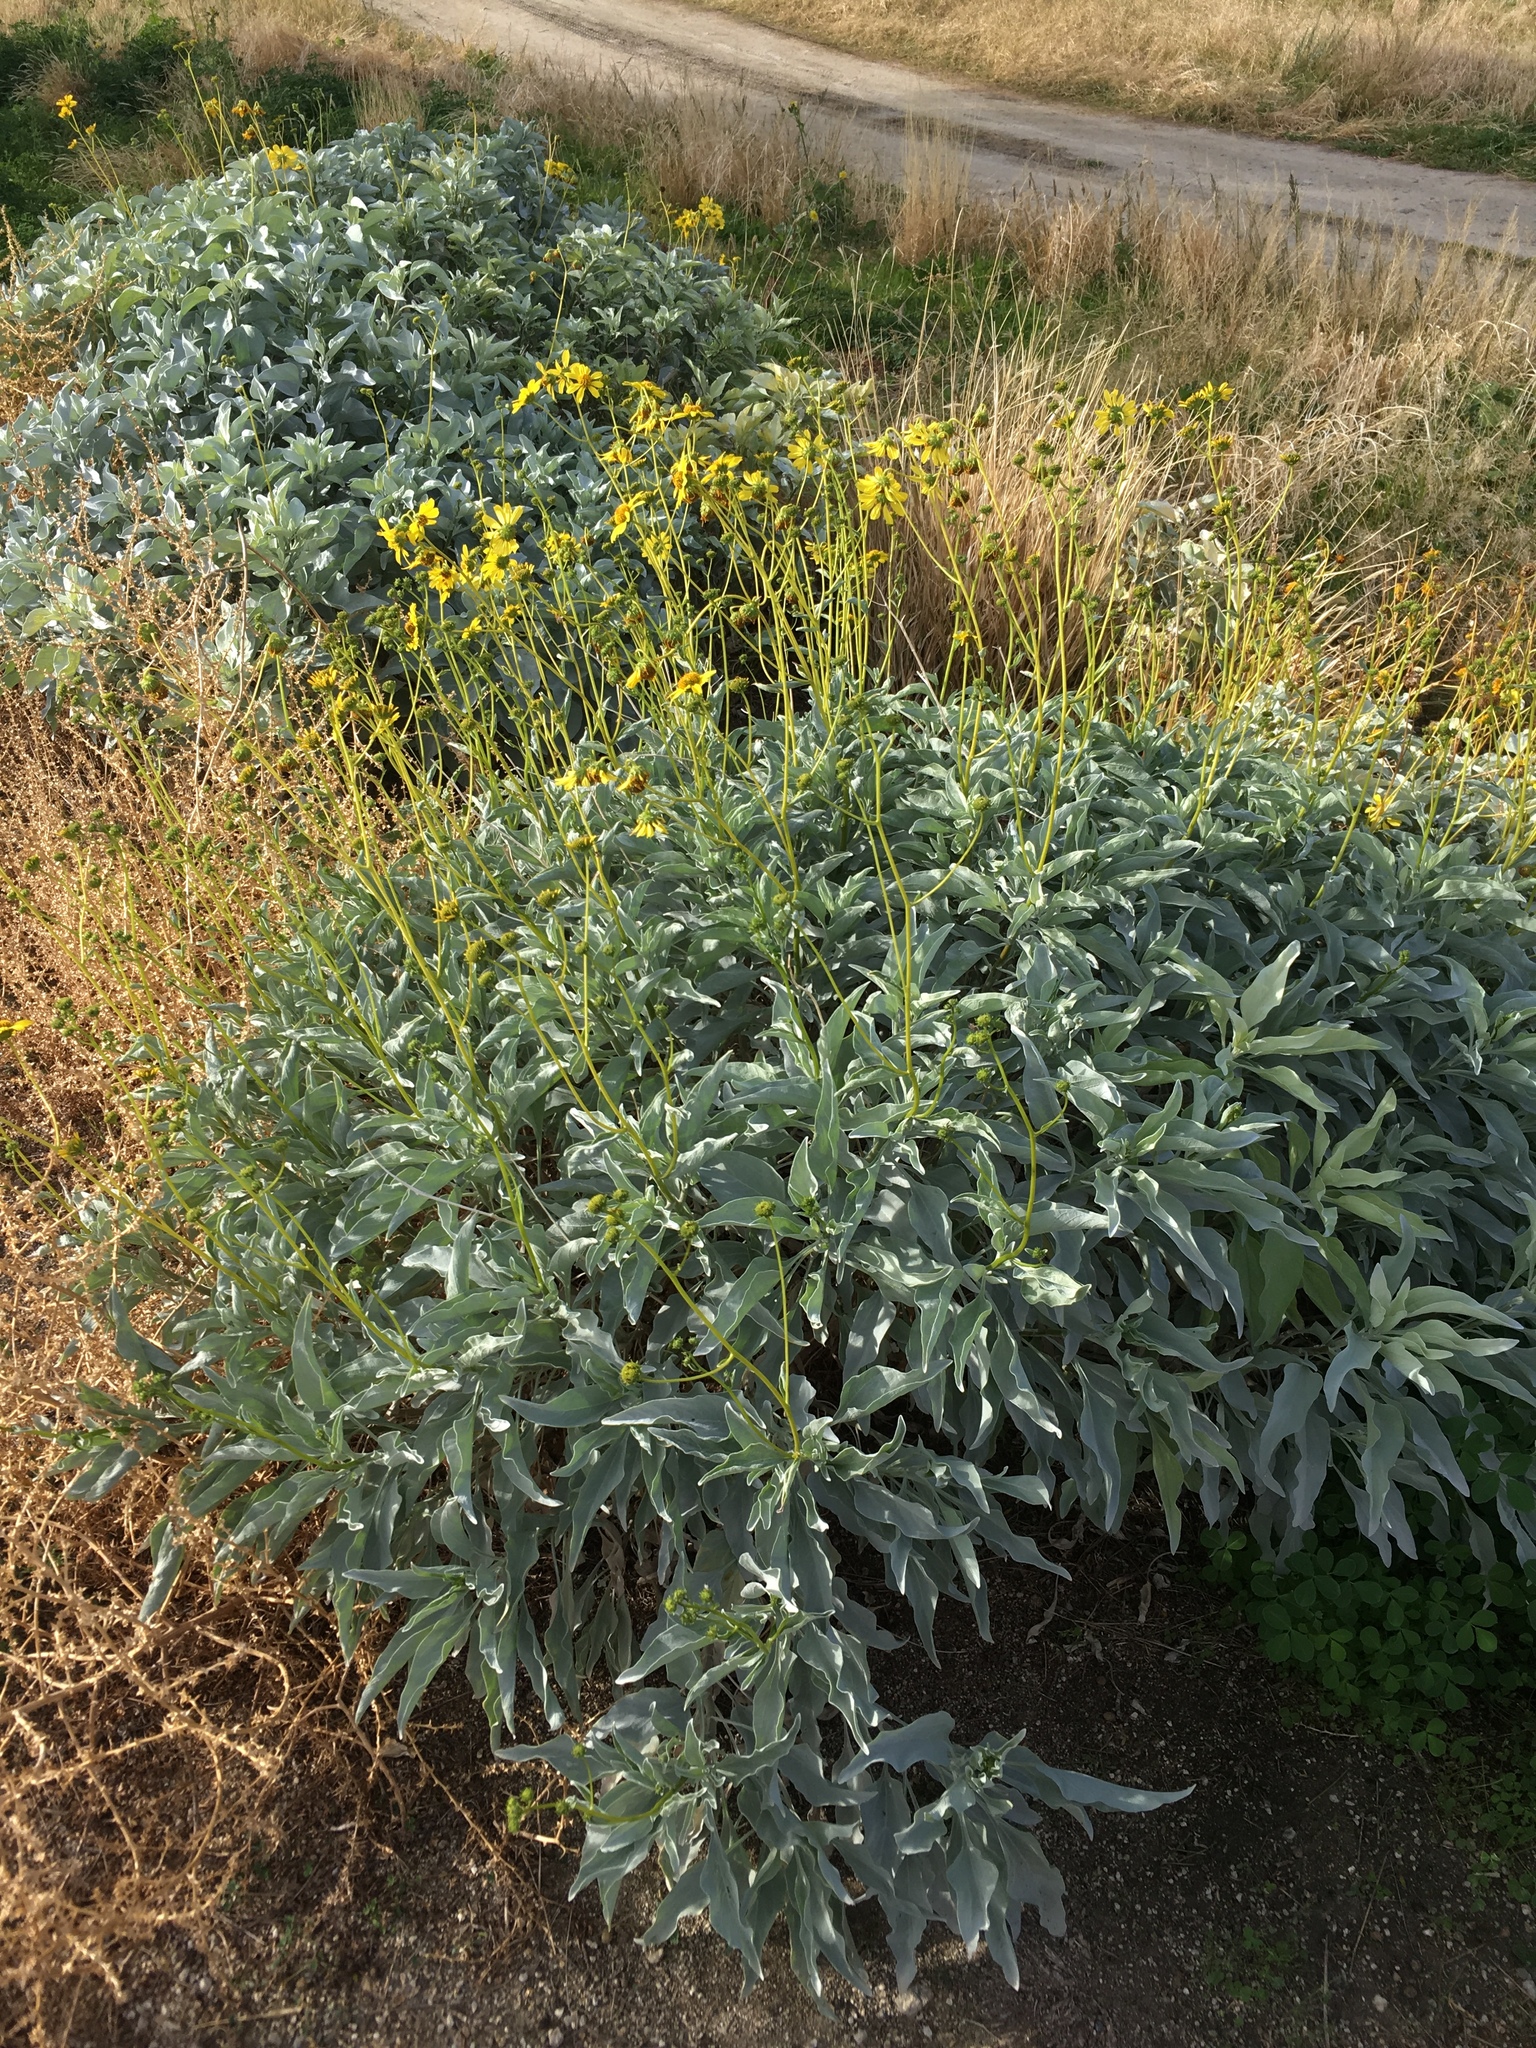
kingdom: Plantae
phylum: Tracheophyta
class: Magnoliopsida
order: Asterales
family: Asteraceae
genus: Encelia
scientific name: Encelia farinosa
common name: Brittlebush
